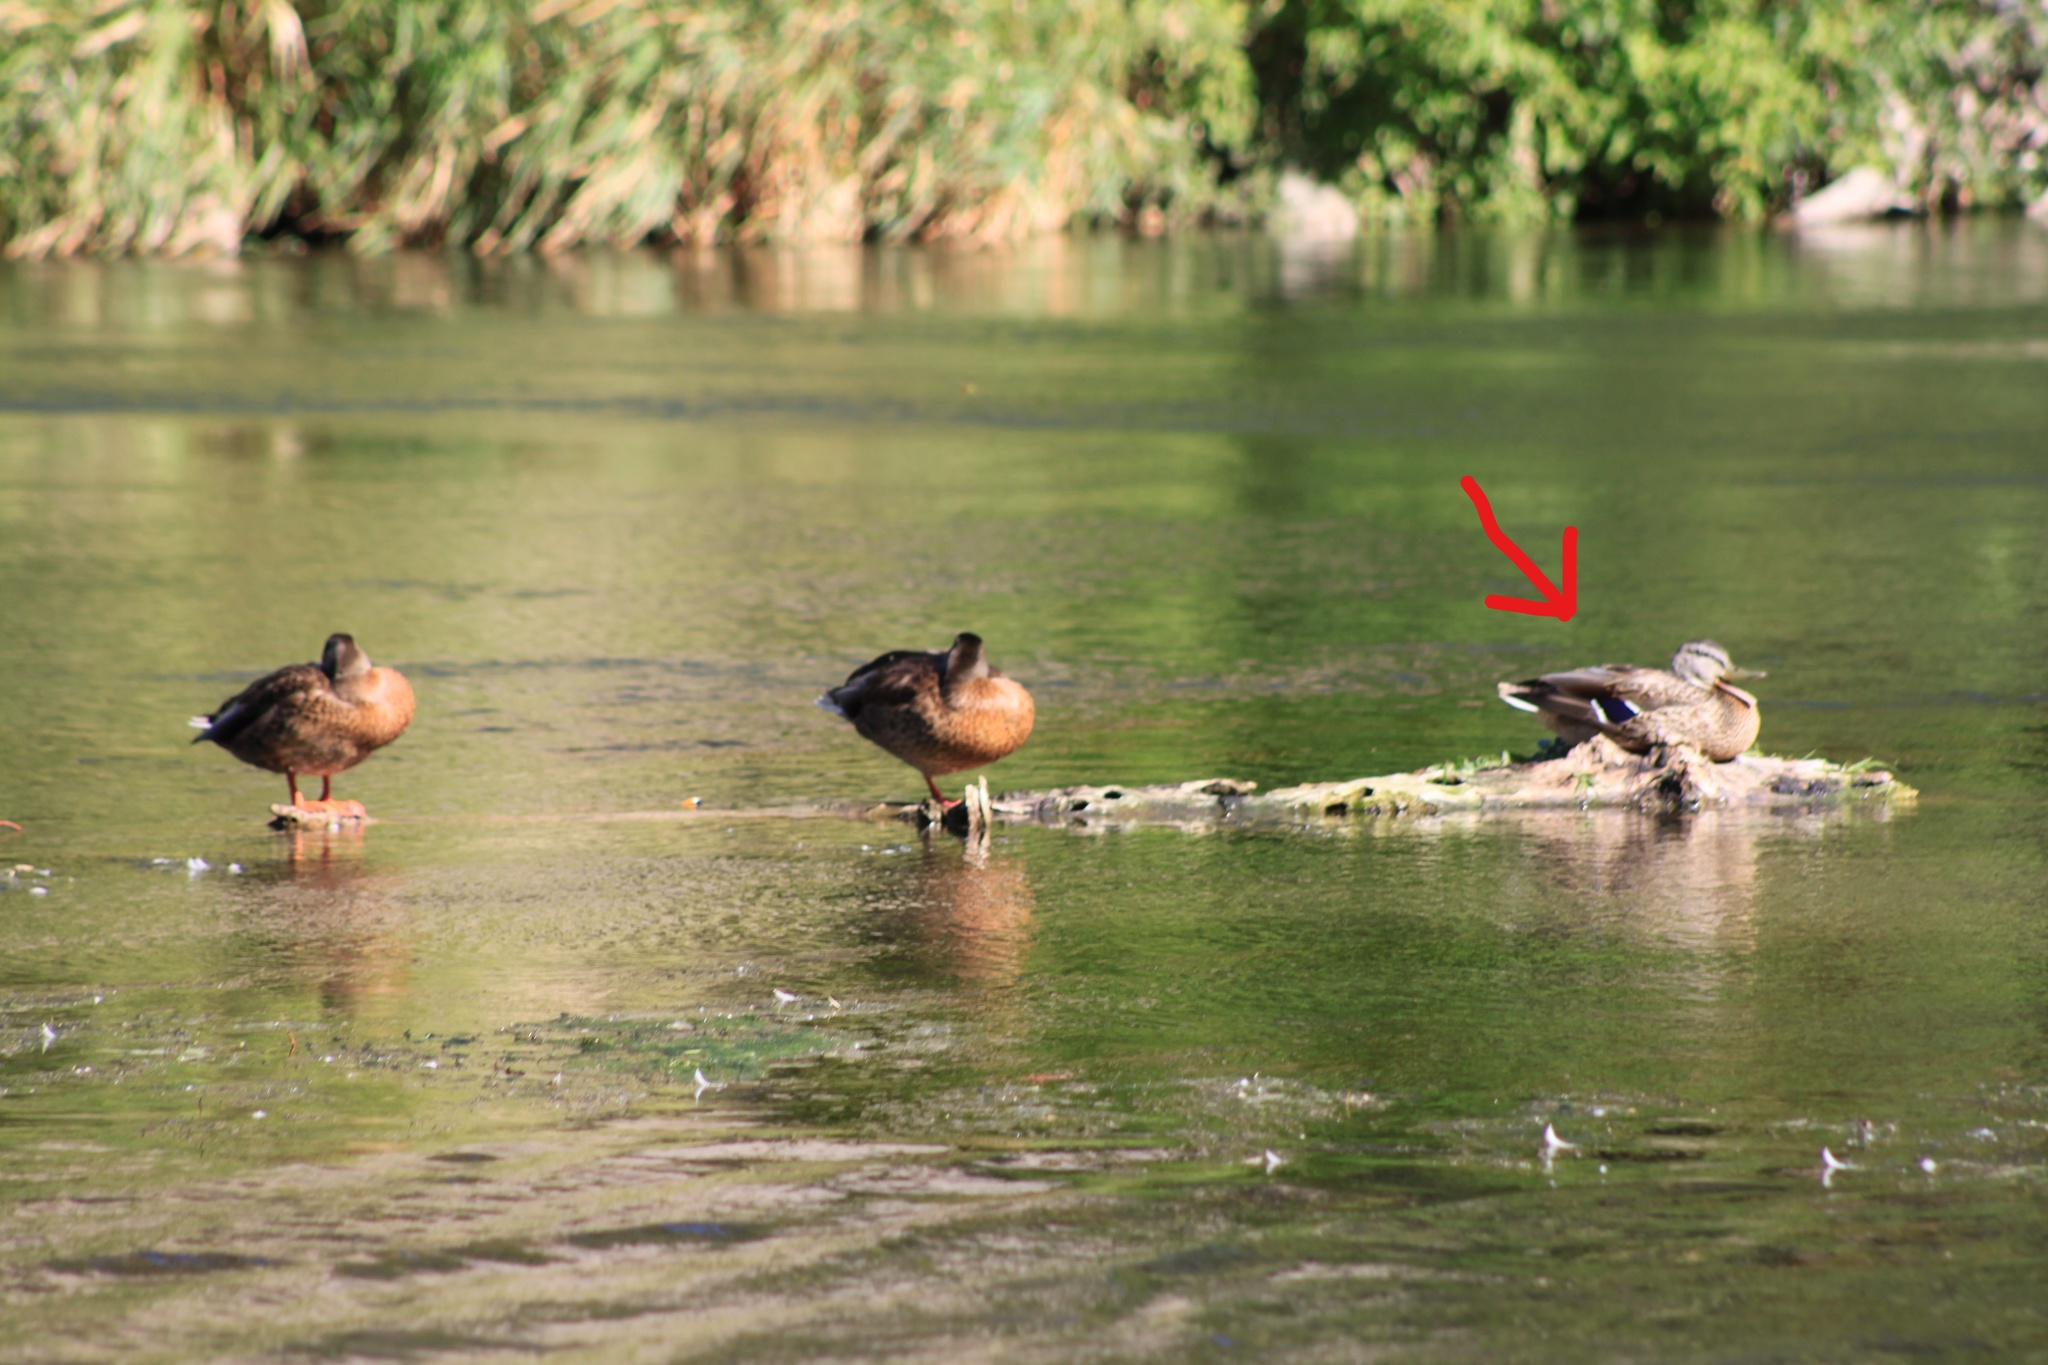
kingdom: Animalia
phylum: Chordata
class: Aves
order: Anseriformes
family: Anatidae
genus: Anas
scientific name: Anas platyrhynchos
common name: Mallard
